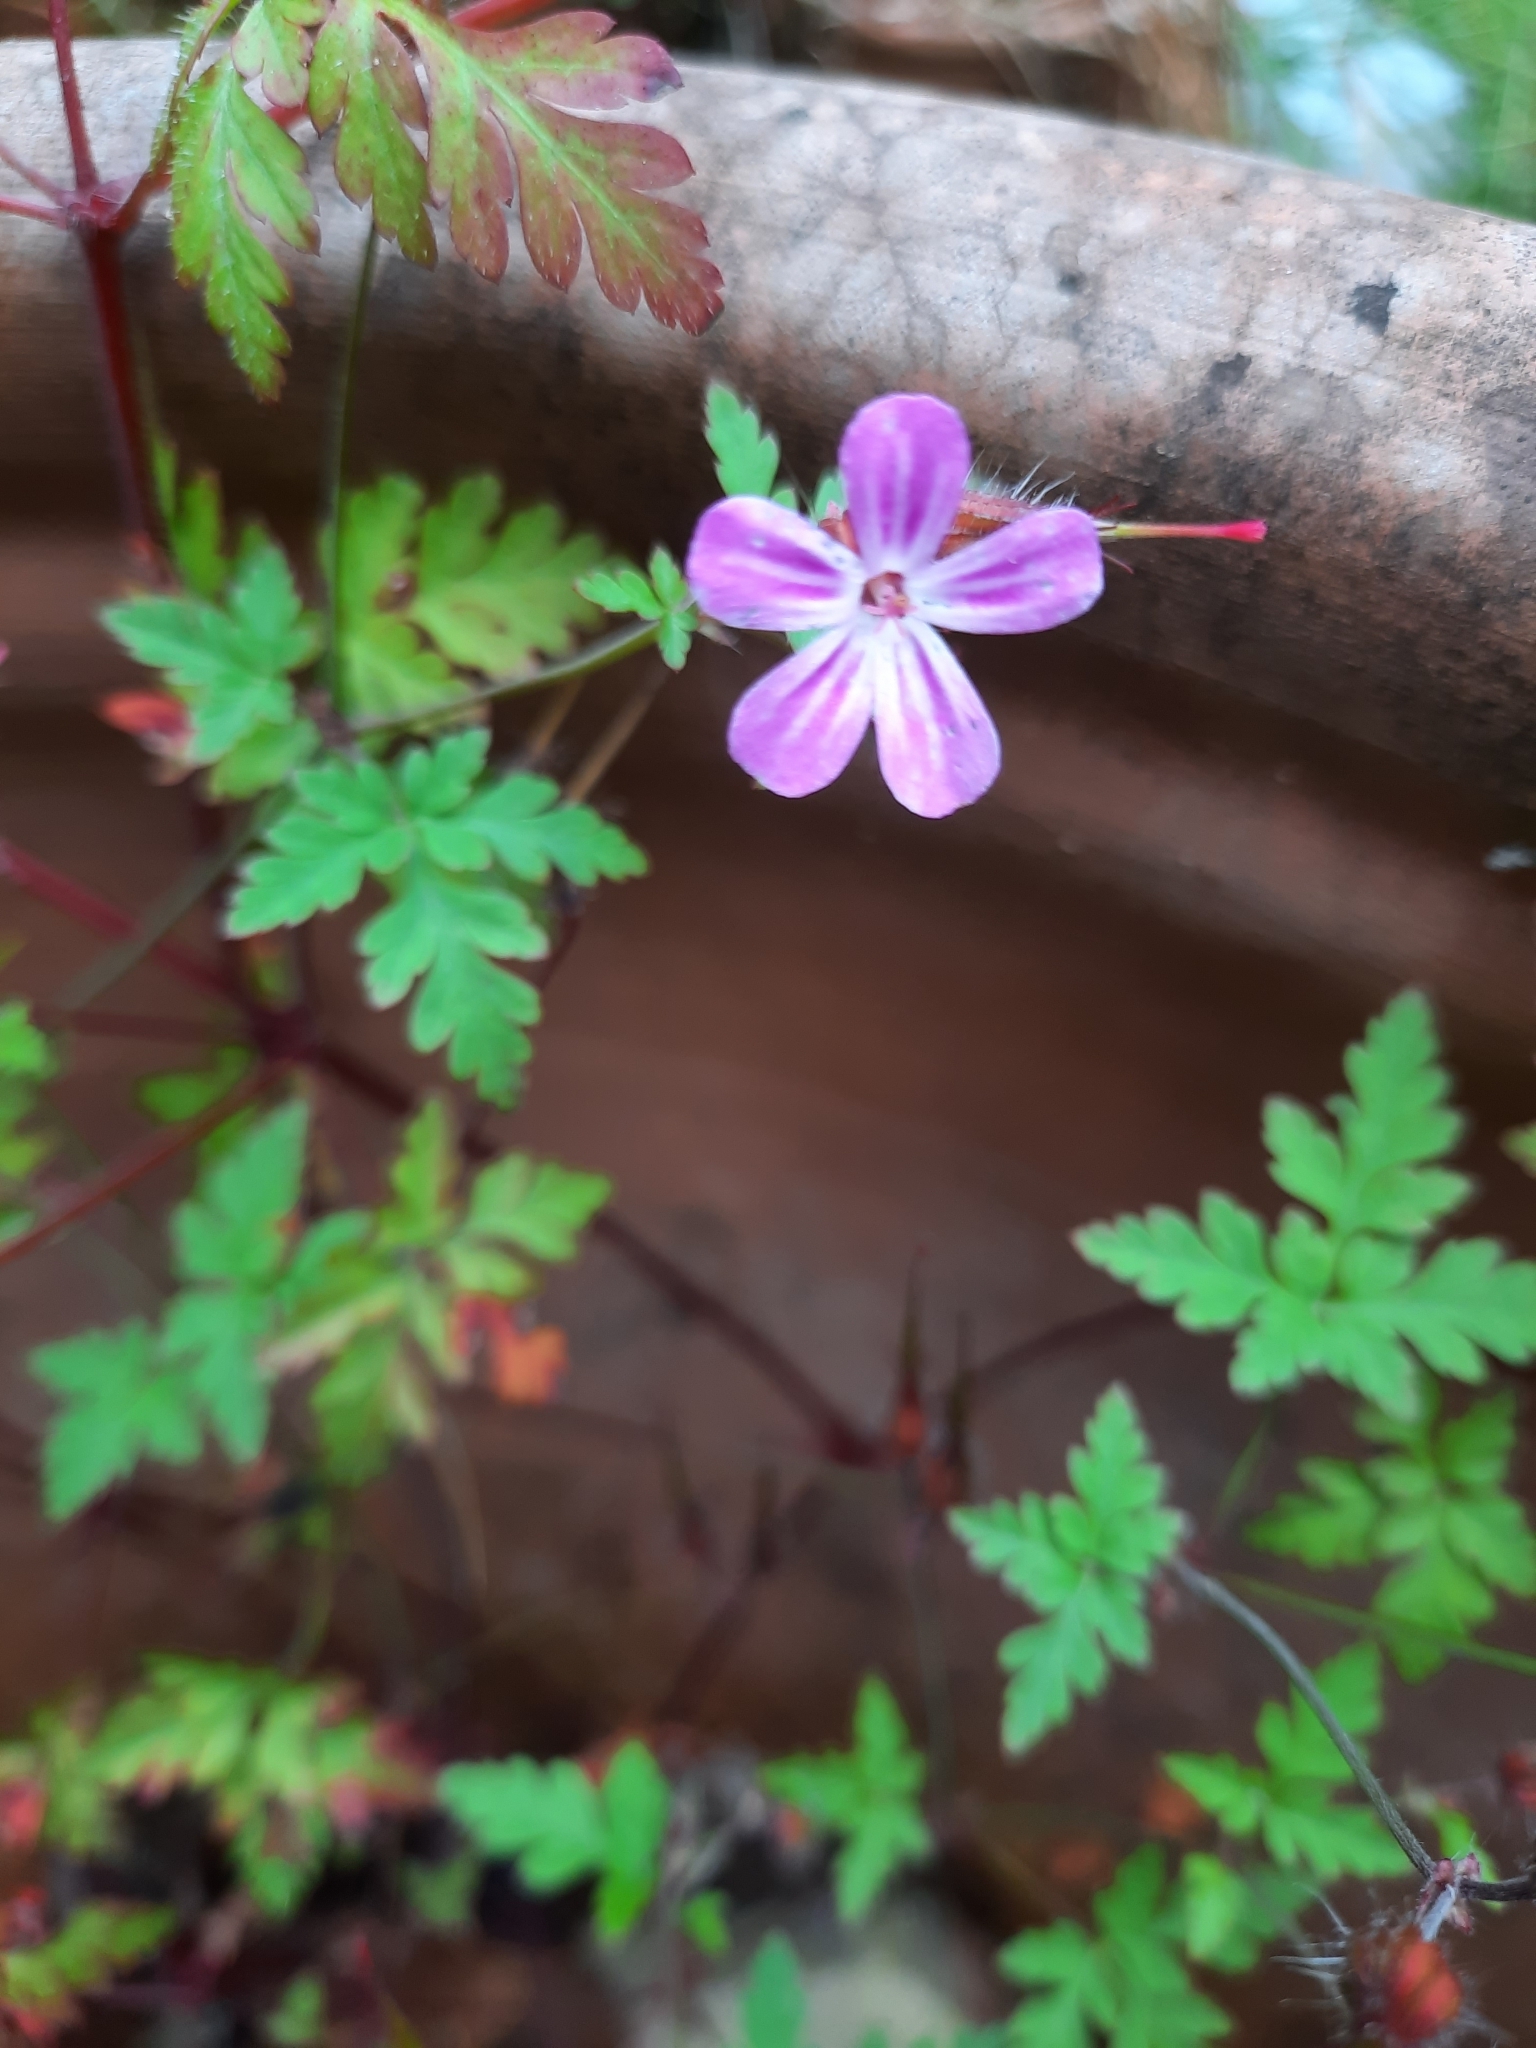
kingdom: Plantae
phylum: Tracheophyta
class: Magnoliopsida
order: Geraniales
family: Geraniaceae
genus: Geranium
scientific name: Geranium robertianum
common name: Herb-robert
